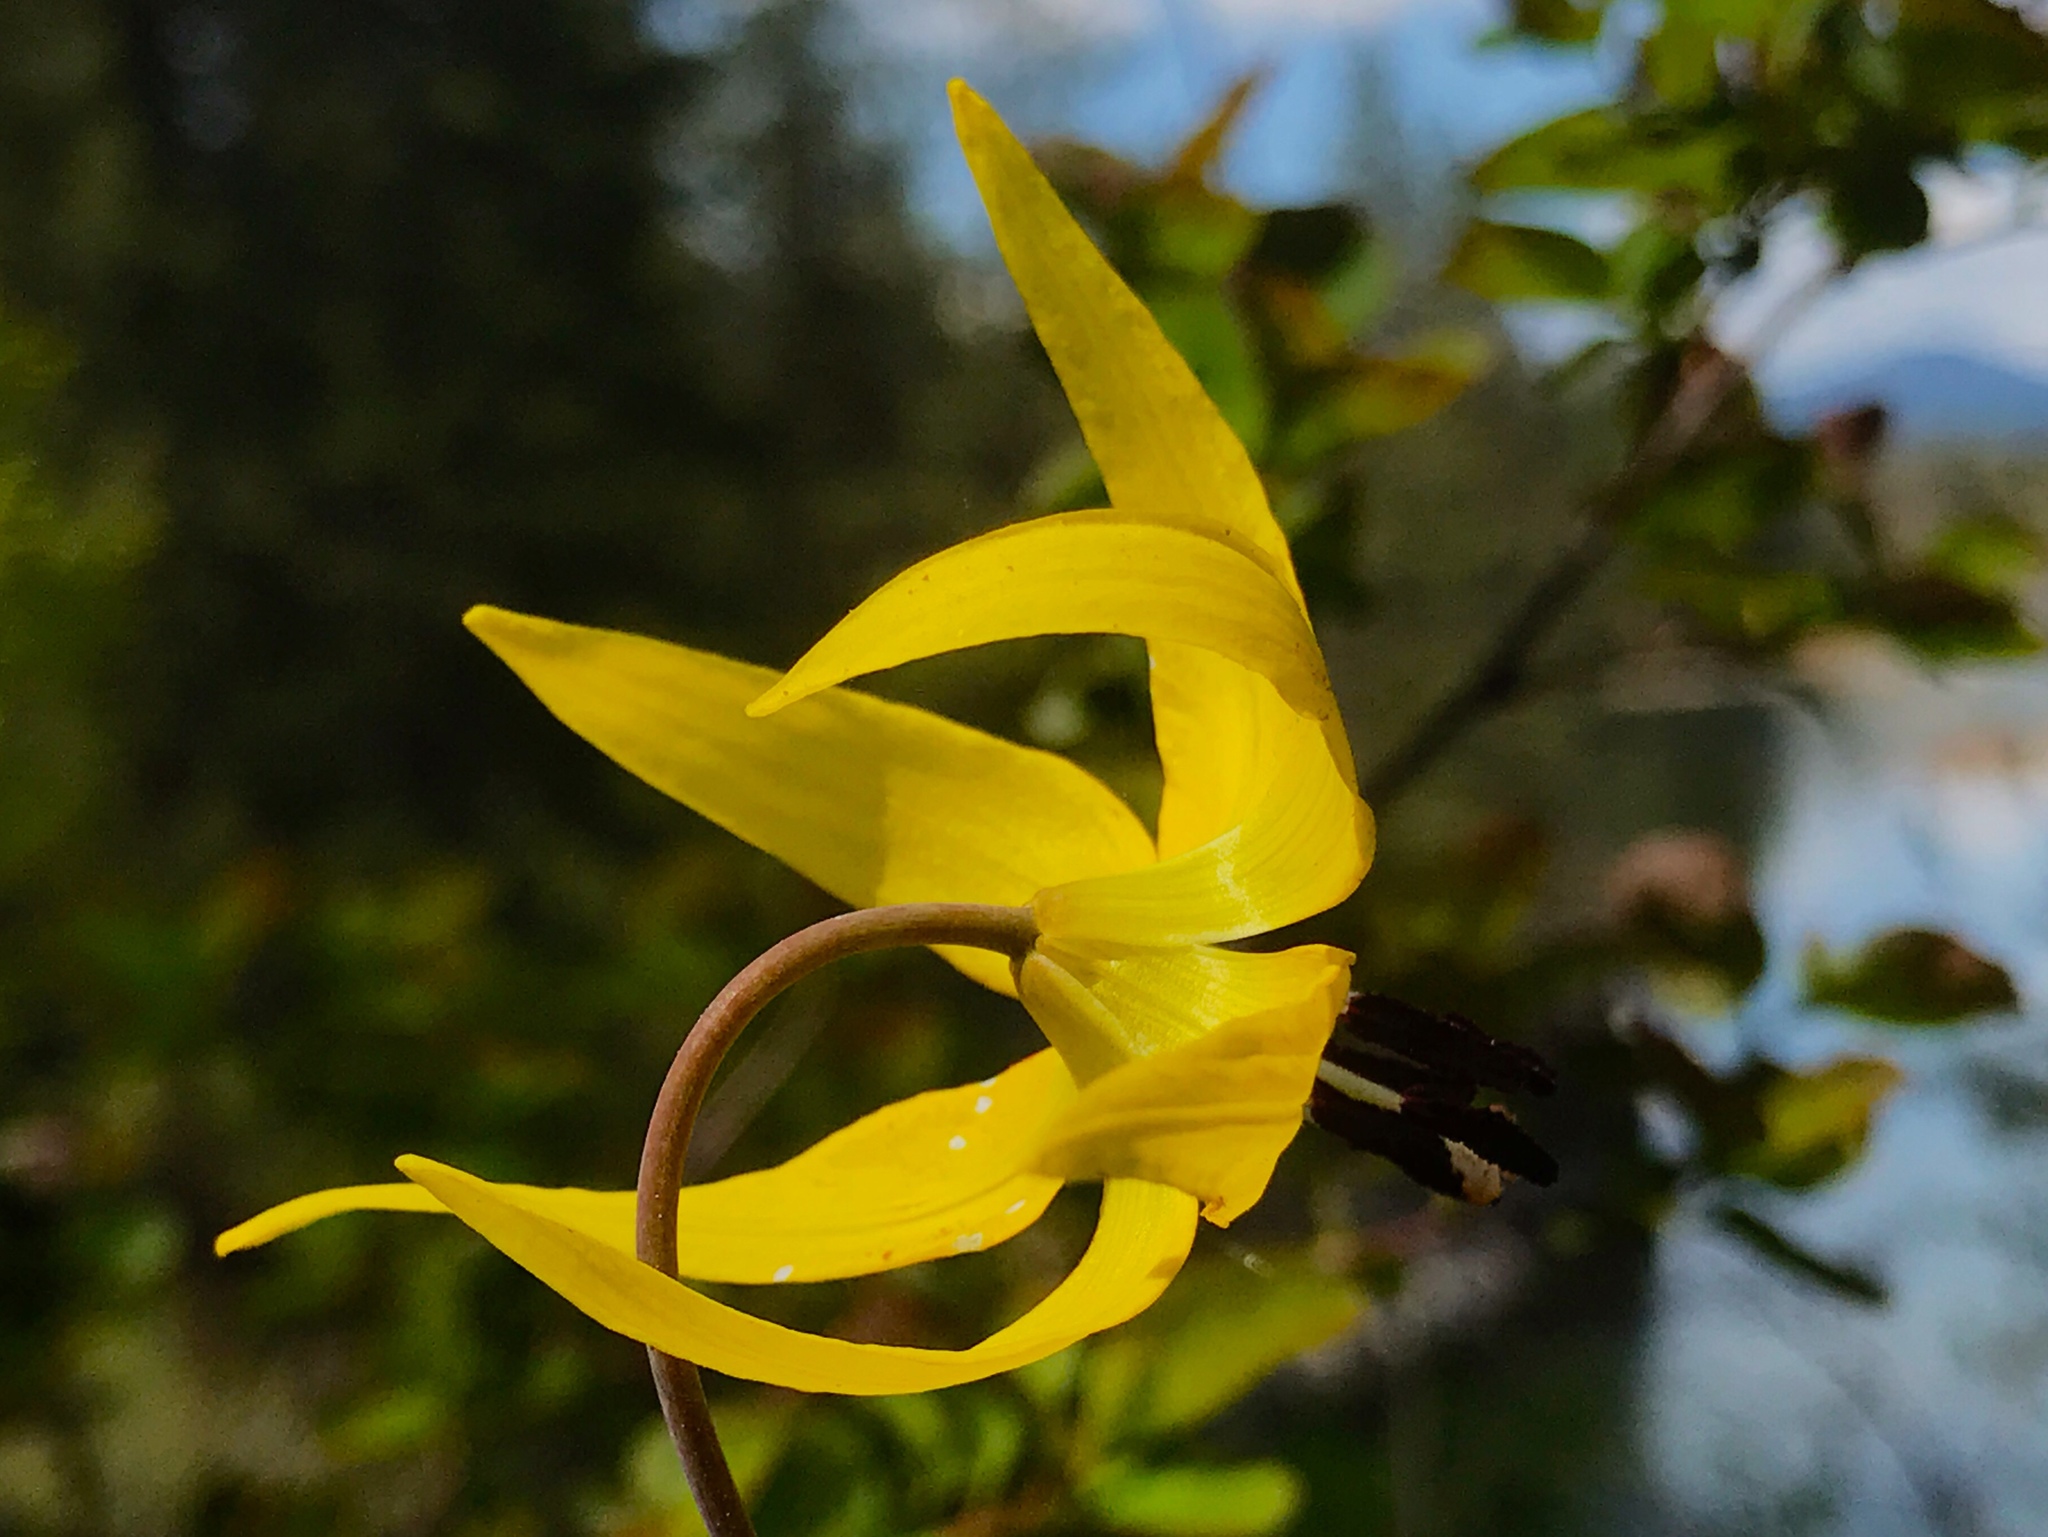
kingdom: Plantae
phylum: Tracheophyta
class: Liliopsida
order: Liliales
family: Liliaceae
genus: Erythronium
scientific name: Erythronium grandiflorum
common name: Avalanche-lily
